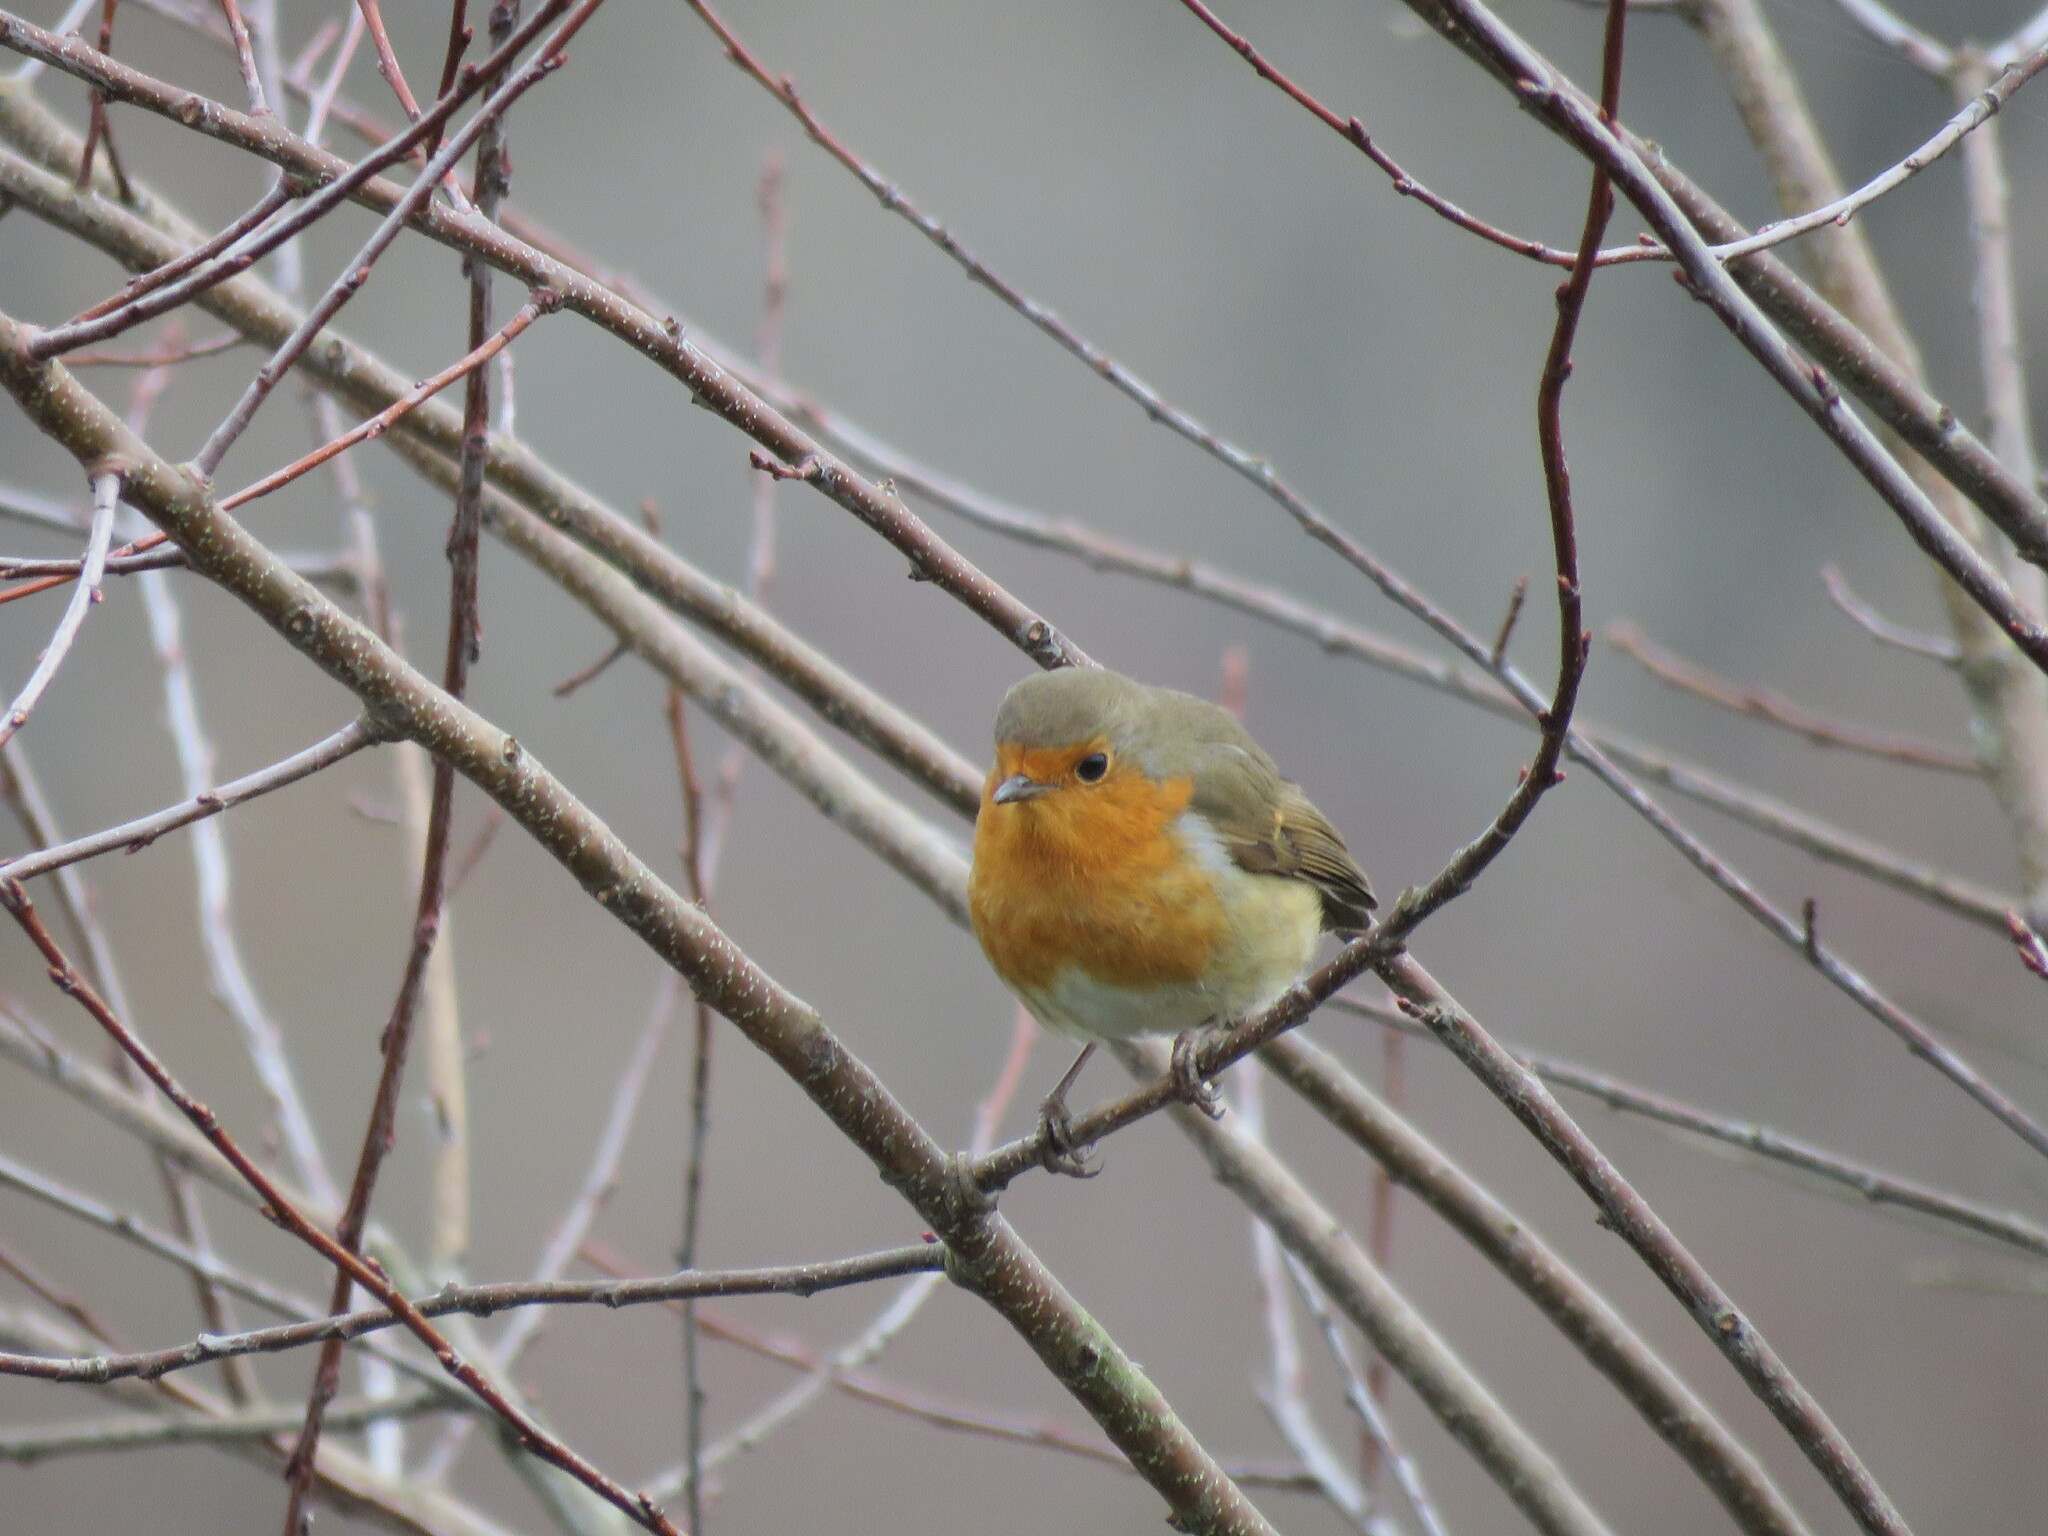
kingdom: Animalia
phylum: Chordata
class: Aves
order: Passeriformes
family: Muscicapidae
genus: Erithacus
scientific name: Erithacus rubecula
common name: European robin
